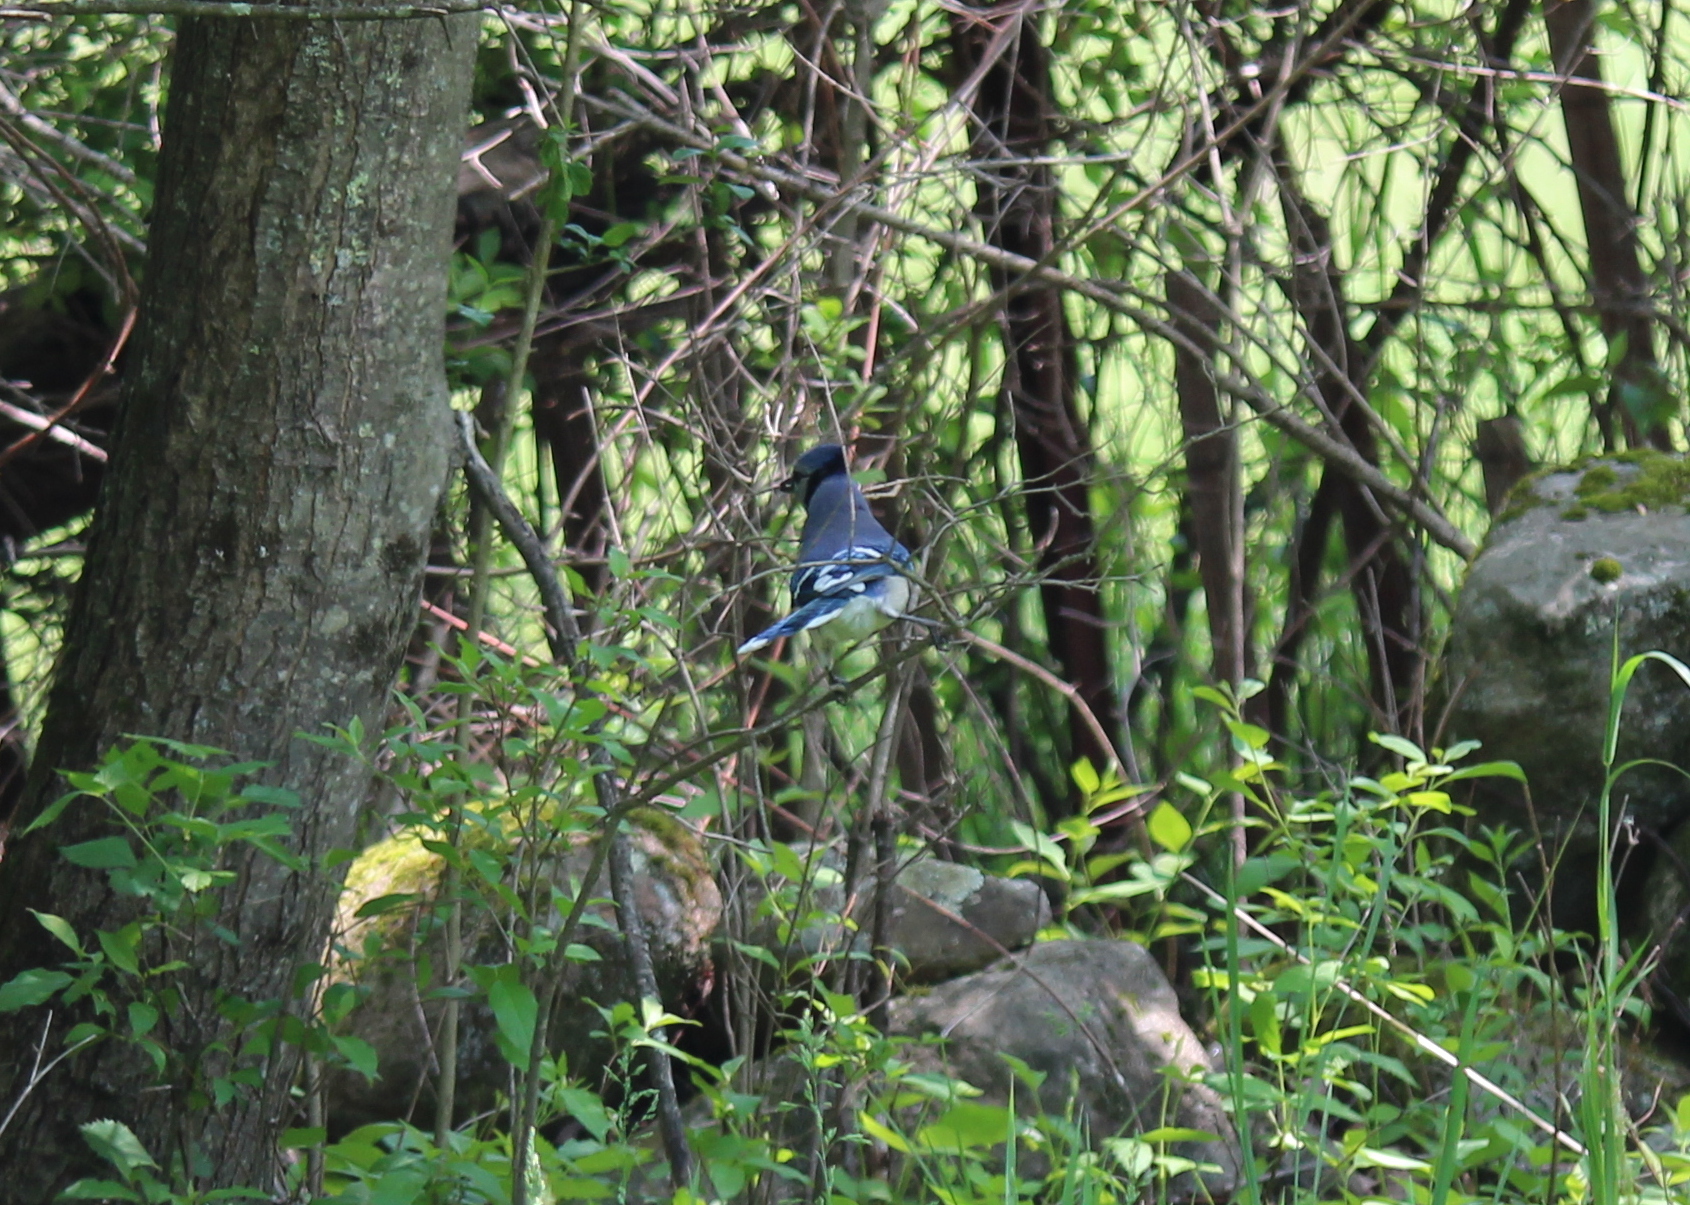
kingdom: Animalia
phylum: Chordata
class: Aves
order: Passeriformes
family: Corvidae
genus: Cyanocitta
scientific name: Cyanocitta cristata
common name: Blue jay
